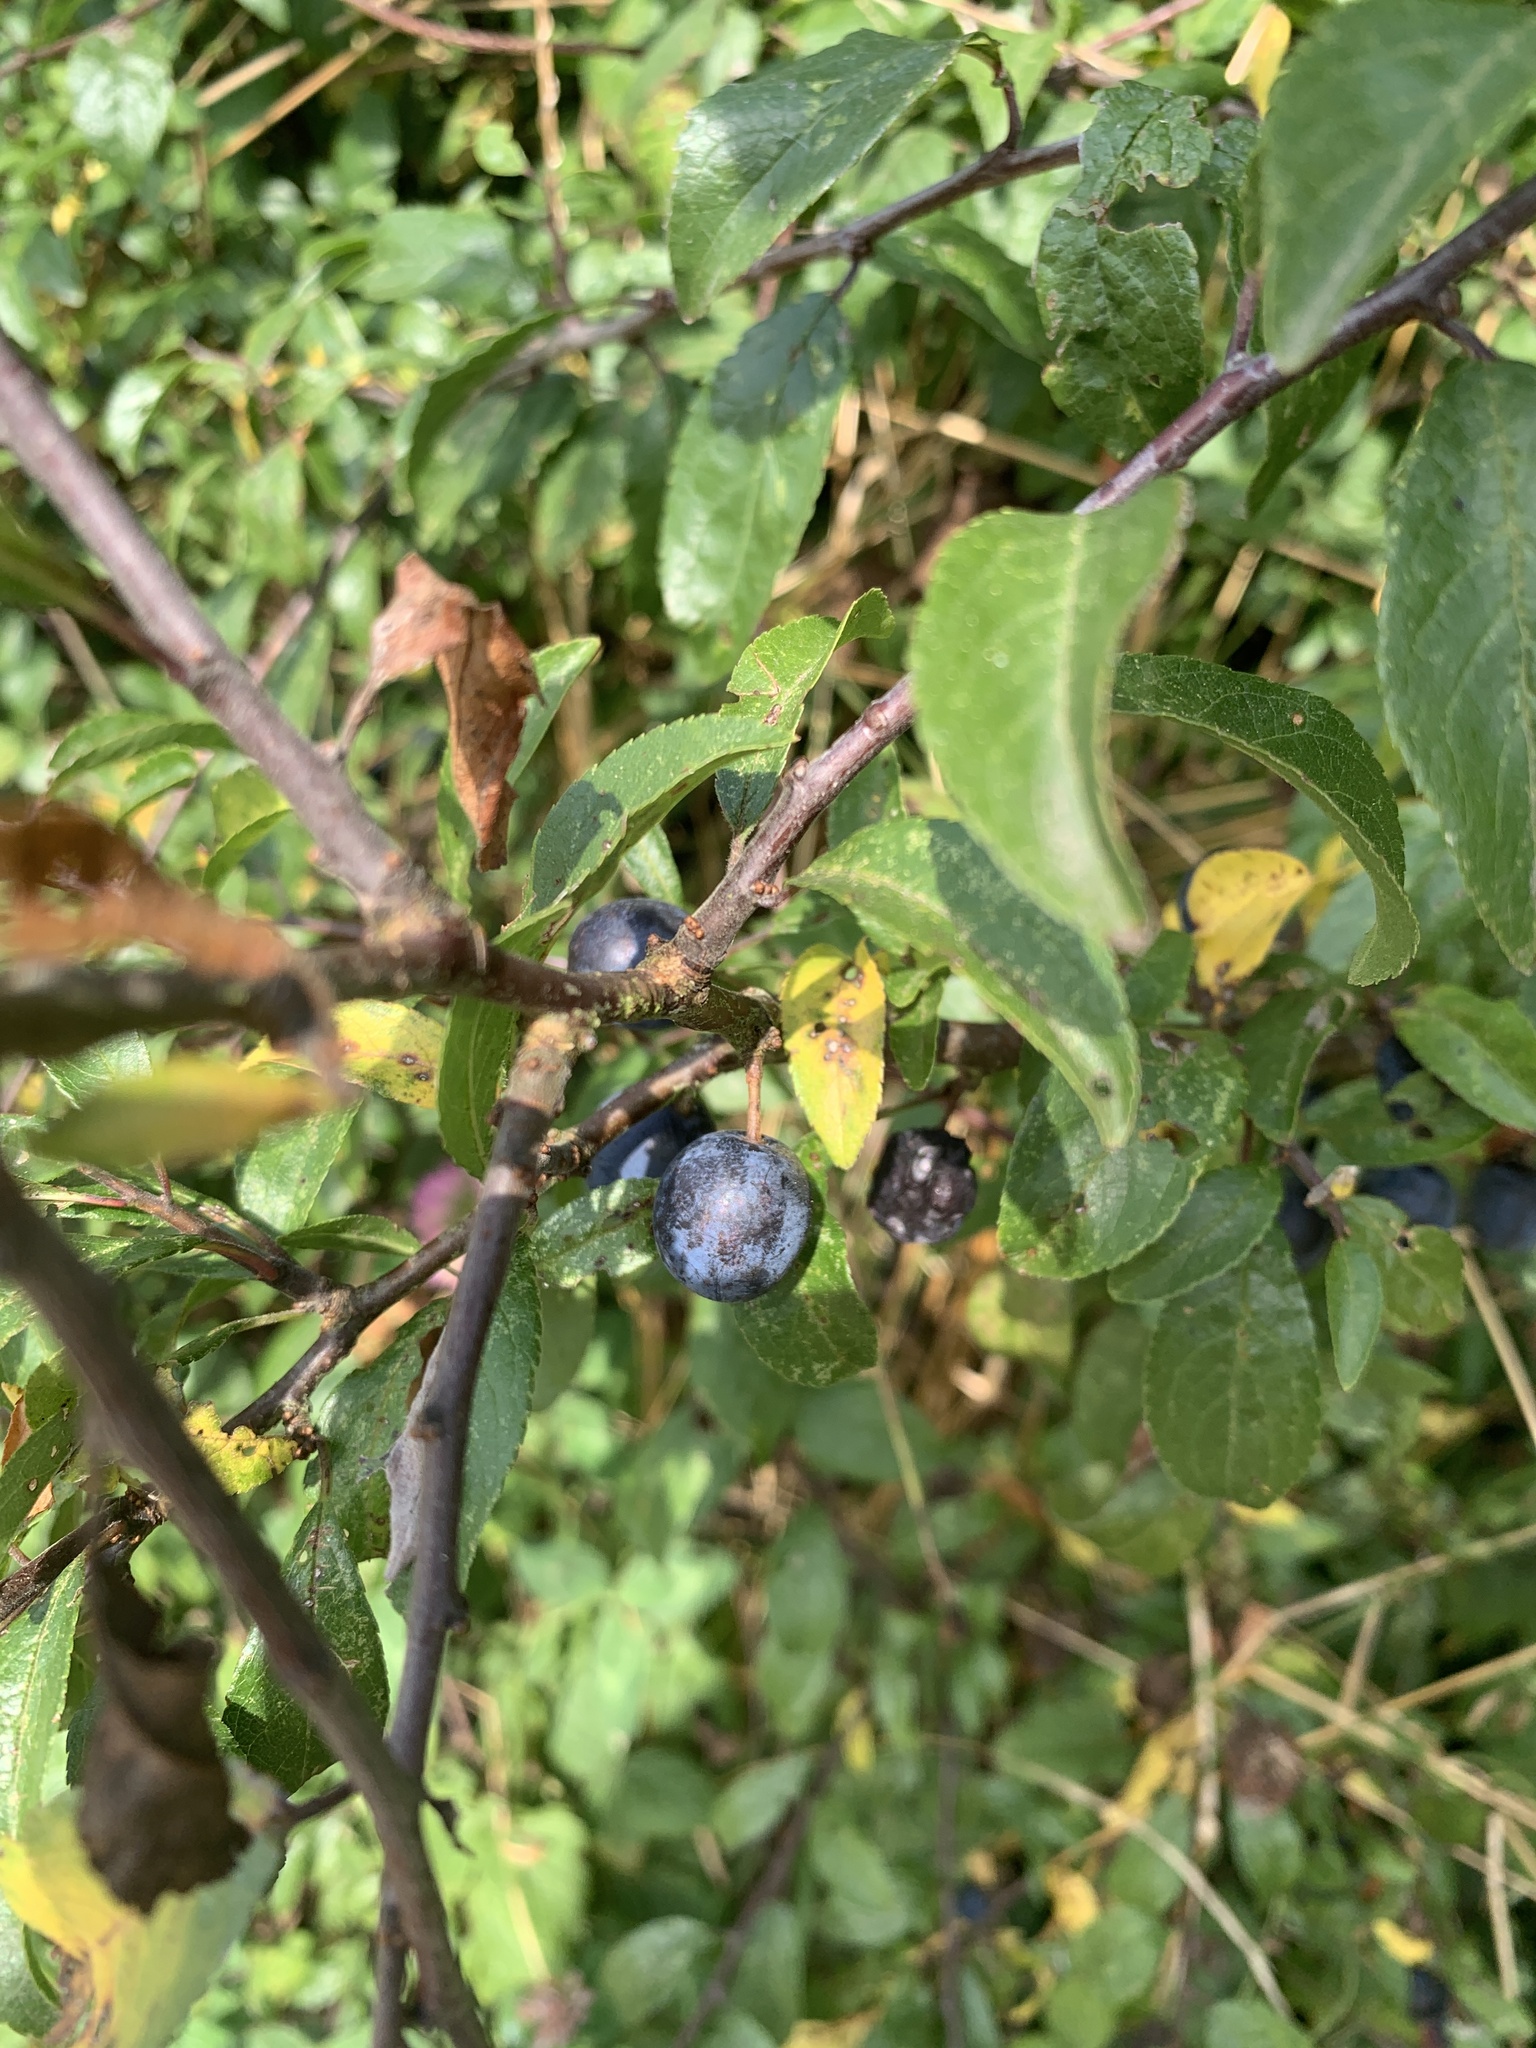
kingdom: Plantae
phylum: Tracheophyta
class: Magnoliopsida
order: Rosales
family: Rosaceae
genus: Prunus
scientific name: Prunus spinosa
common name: Blackthorn
